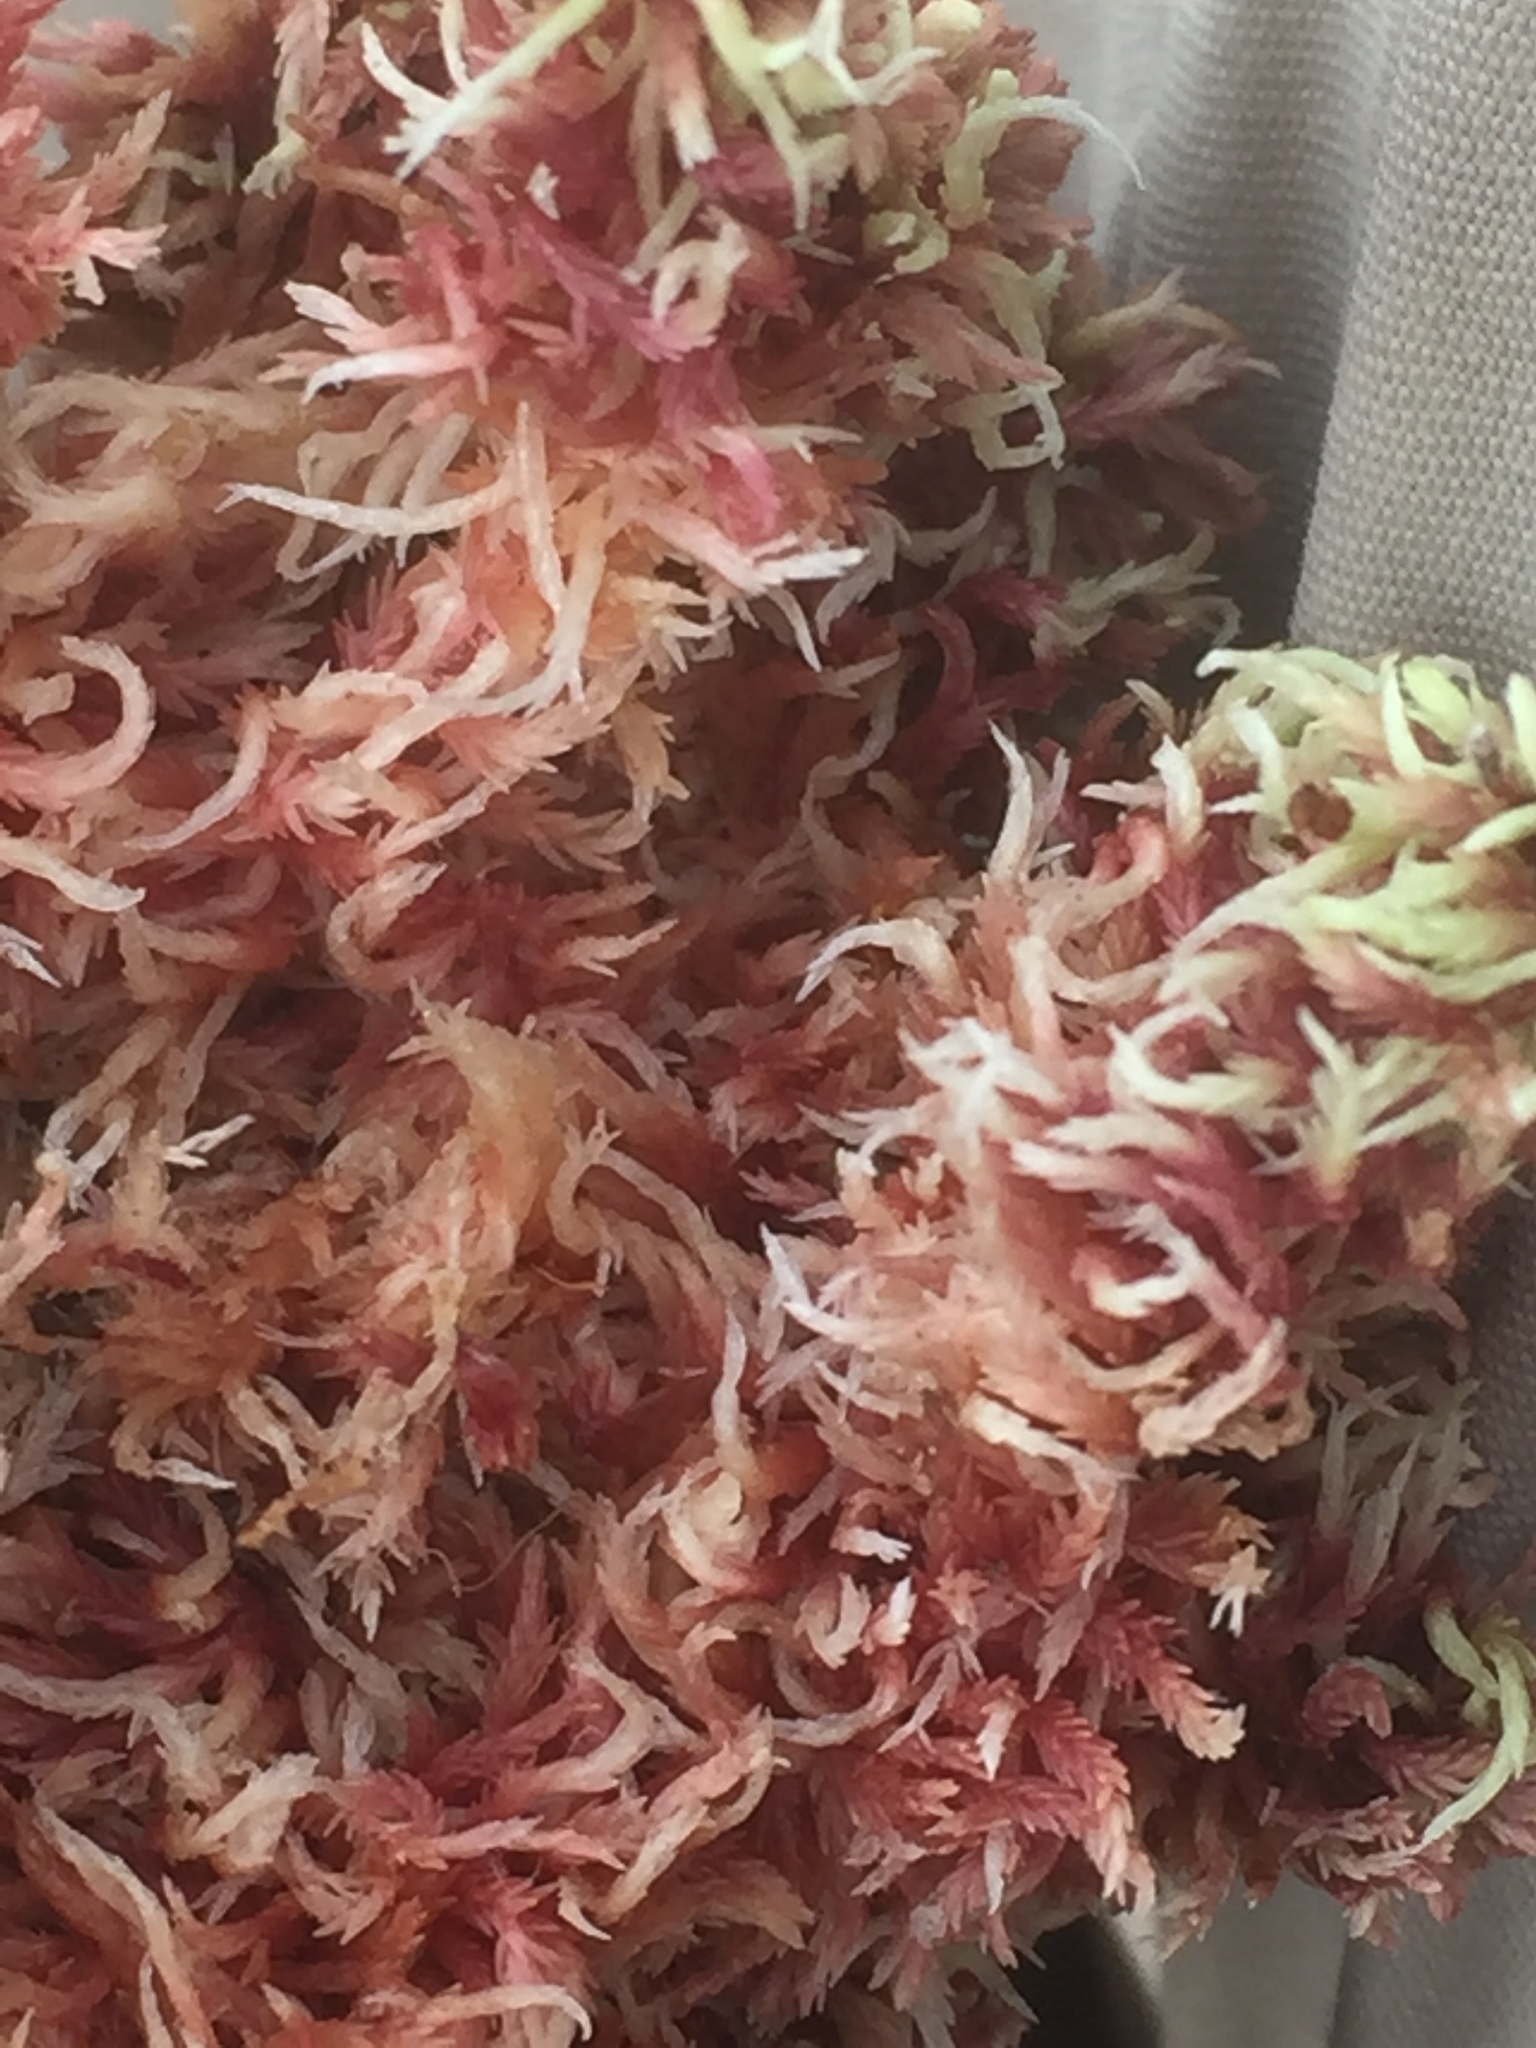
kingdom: Plantae
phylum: Bryophyta
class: Sphagnopsida
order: Sphagnales
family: Sphagnaceae
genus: Sphagnum
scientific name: Sphagnum rubellum
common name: Red peat moss
